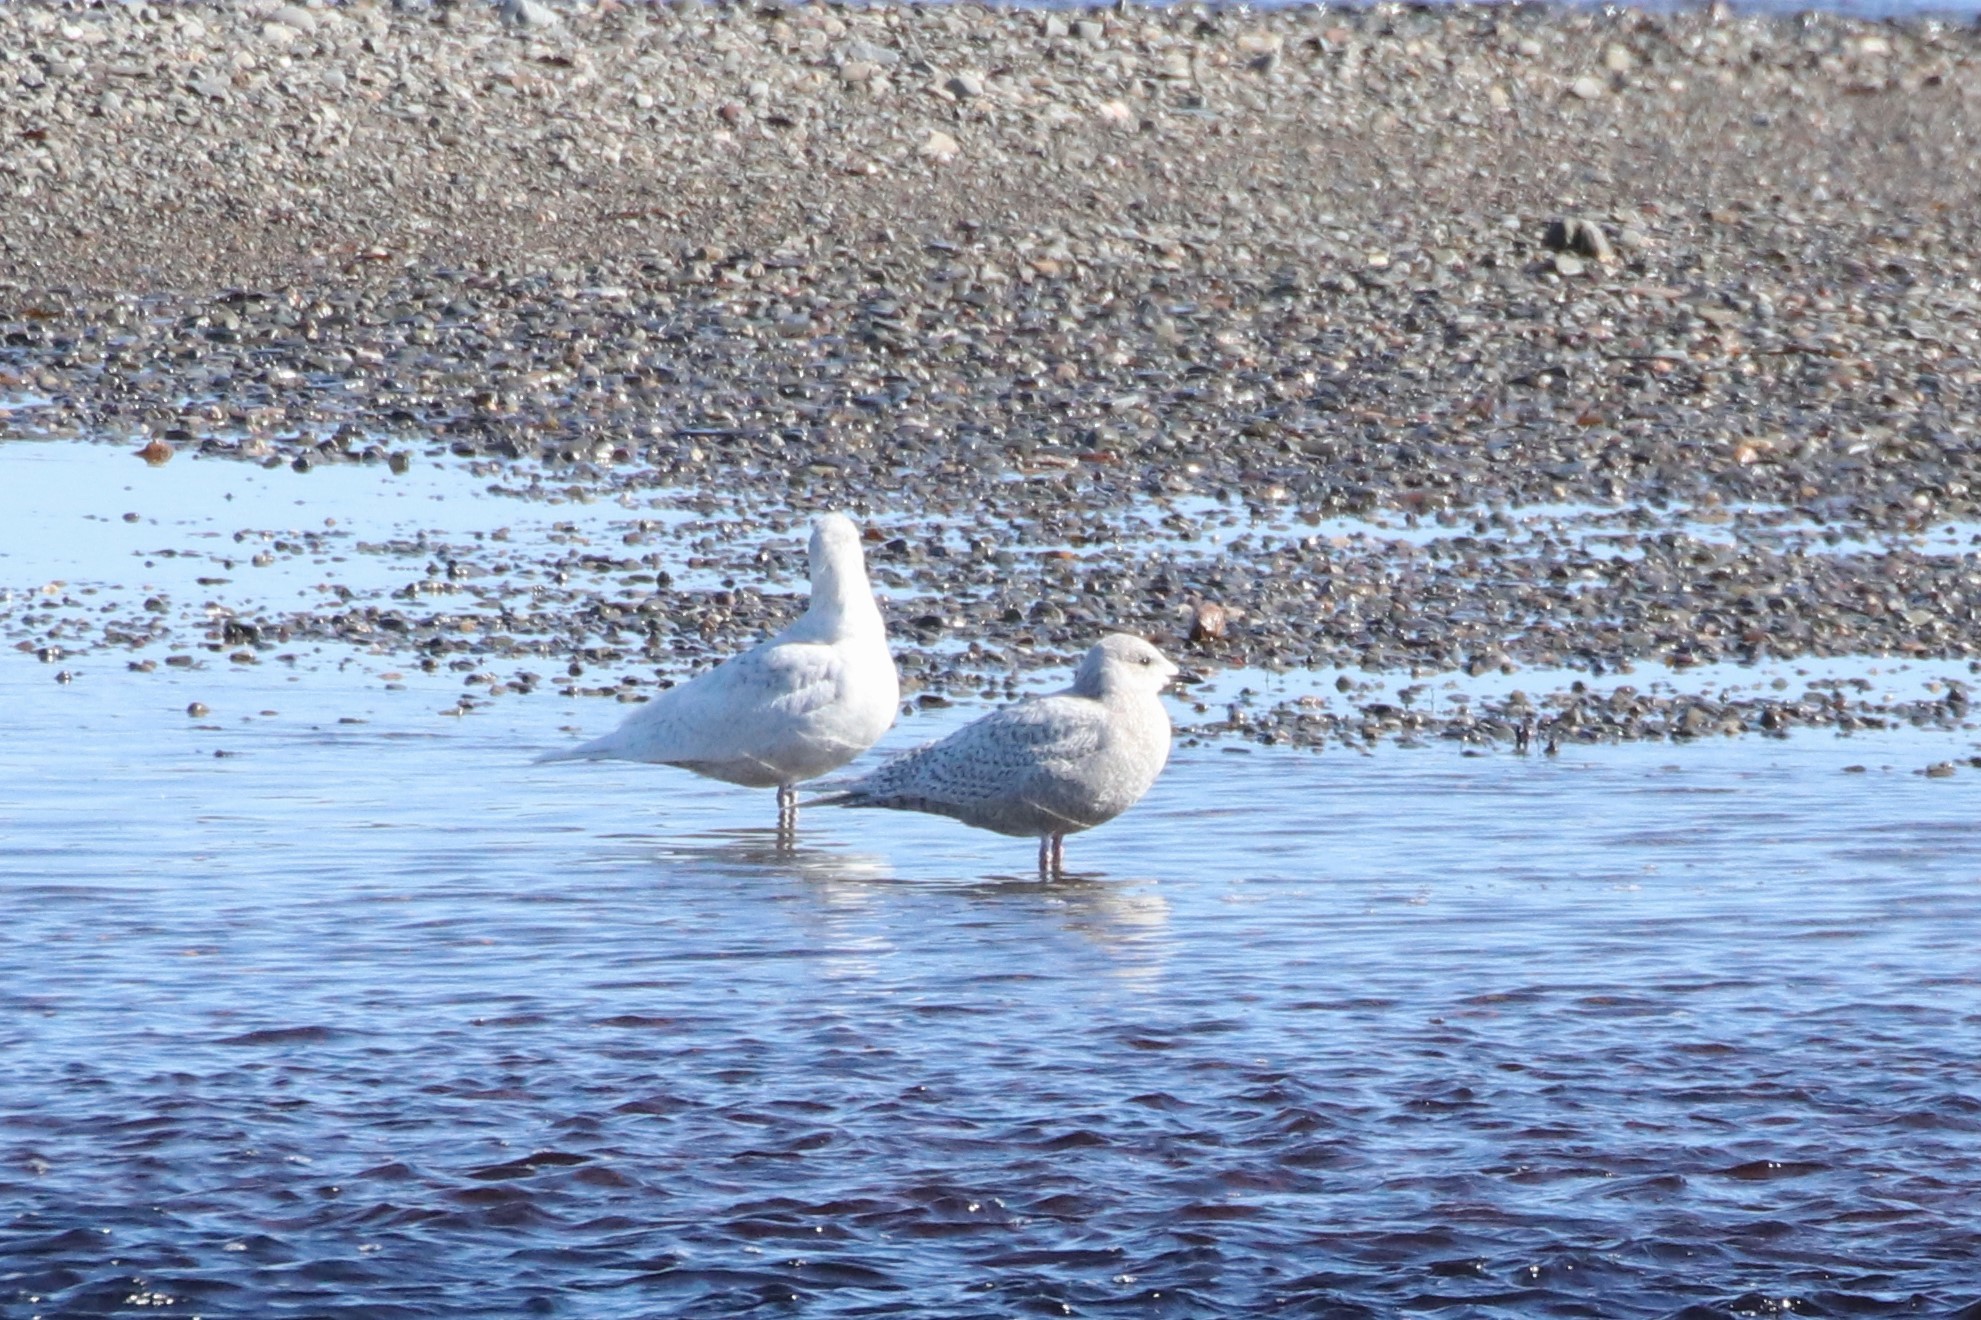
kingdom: Animalia
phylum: Chordata
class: Aves
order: Charadriiformes
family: Laridae
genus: Larus
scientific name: Larus glaucoides
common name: Iceland gull
